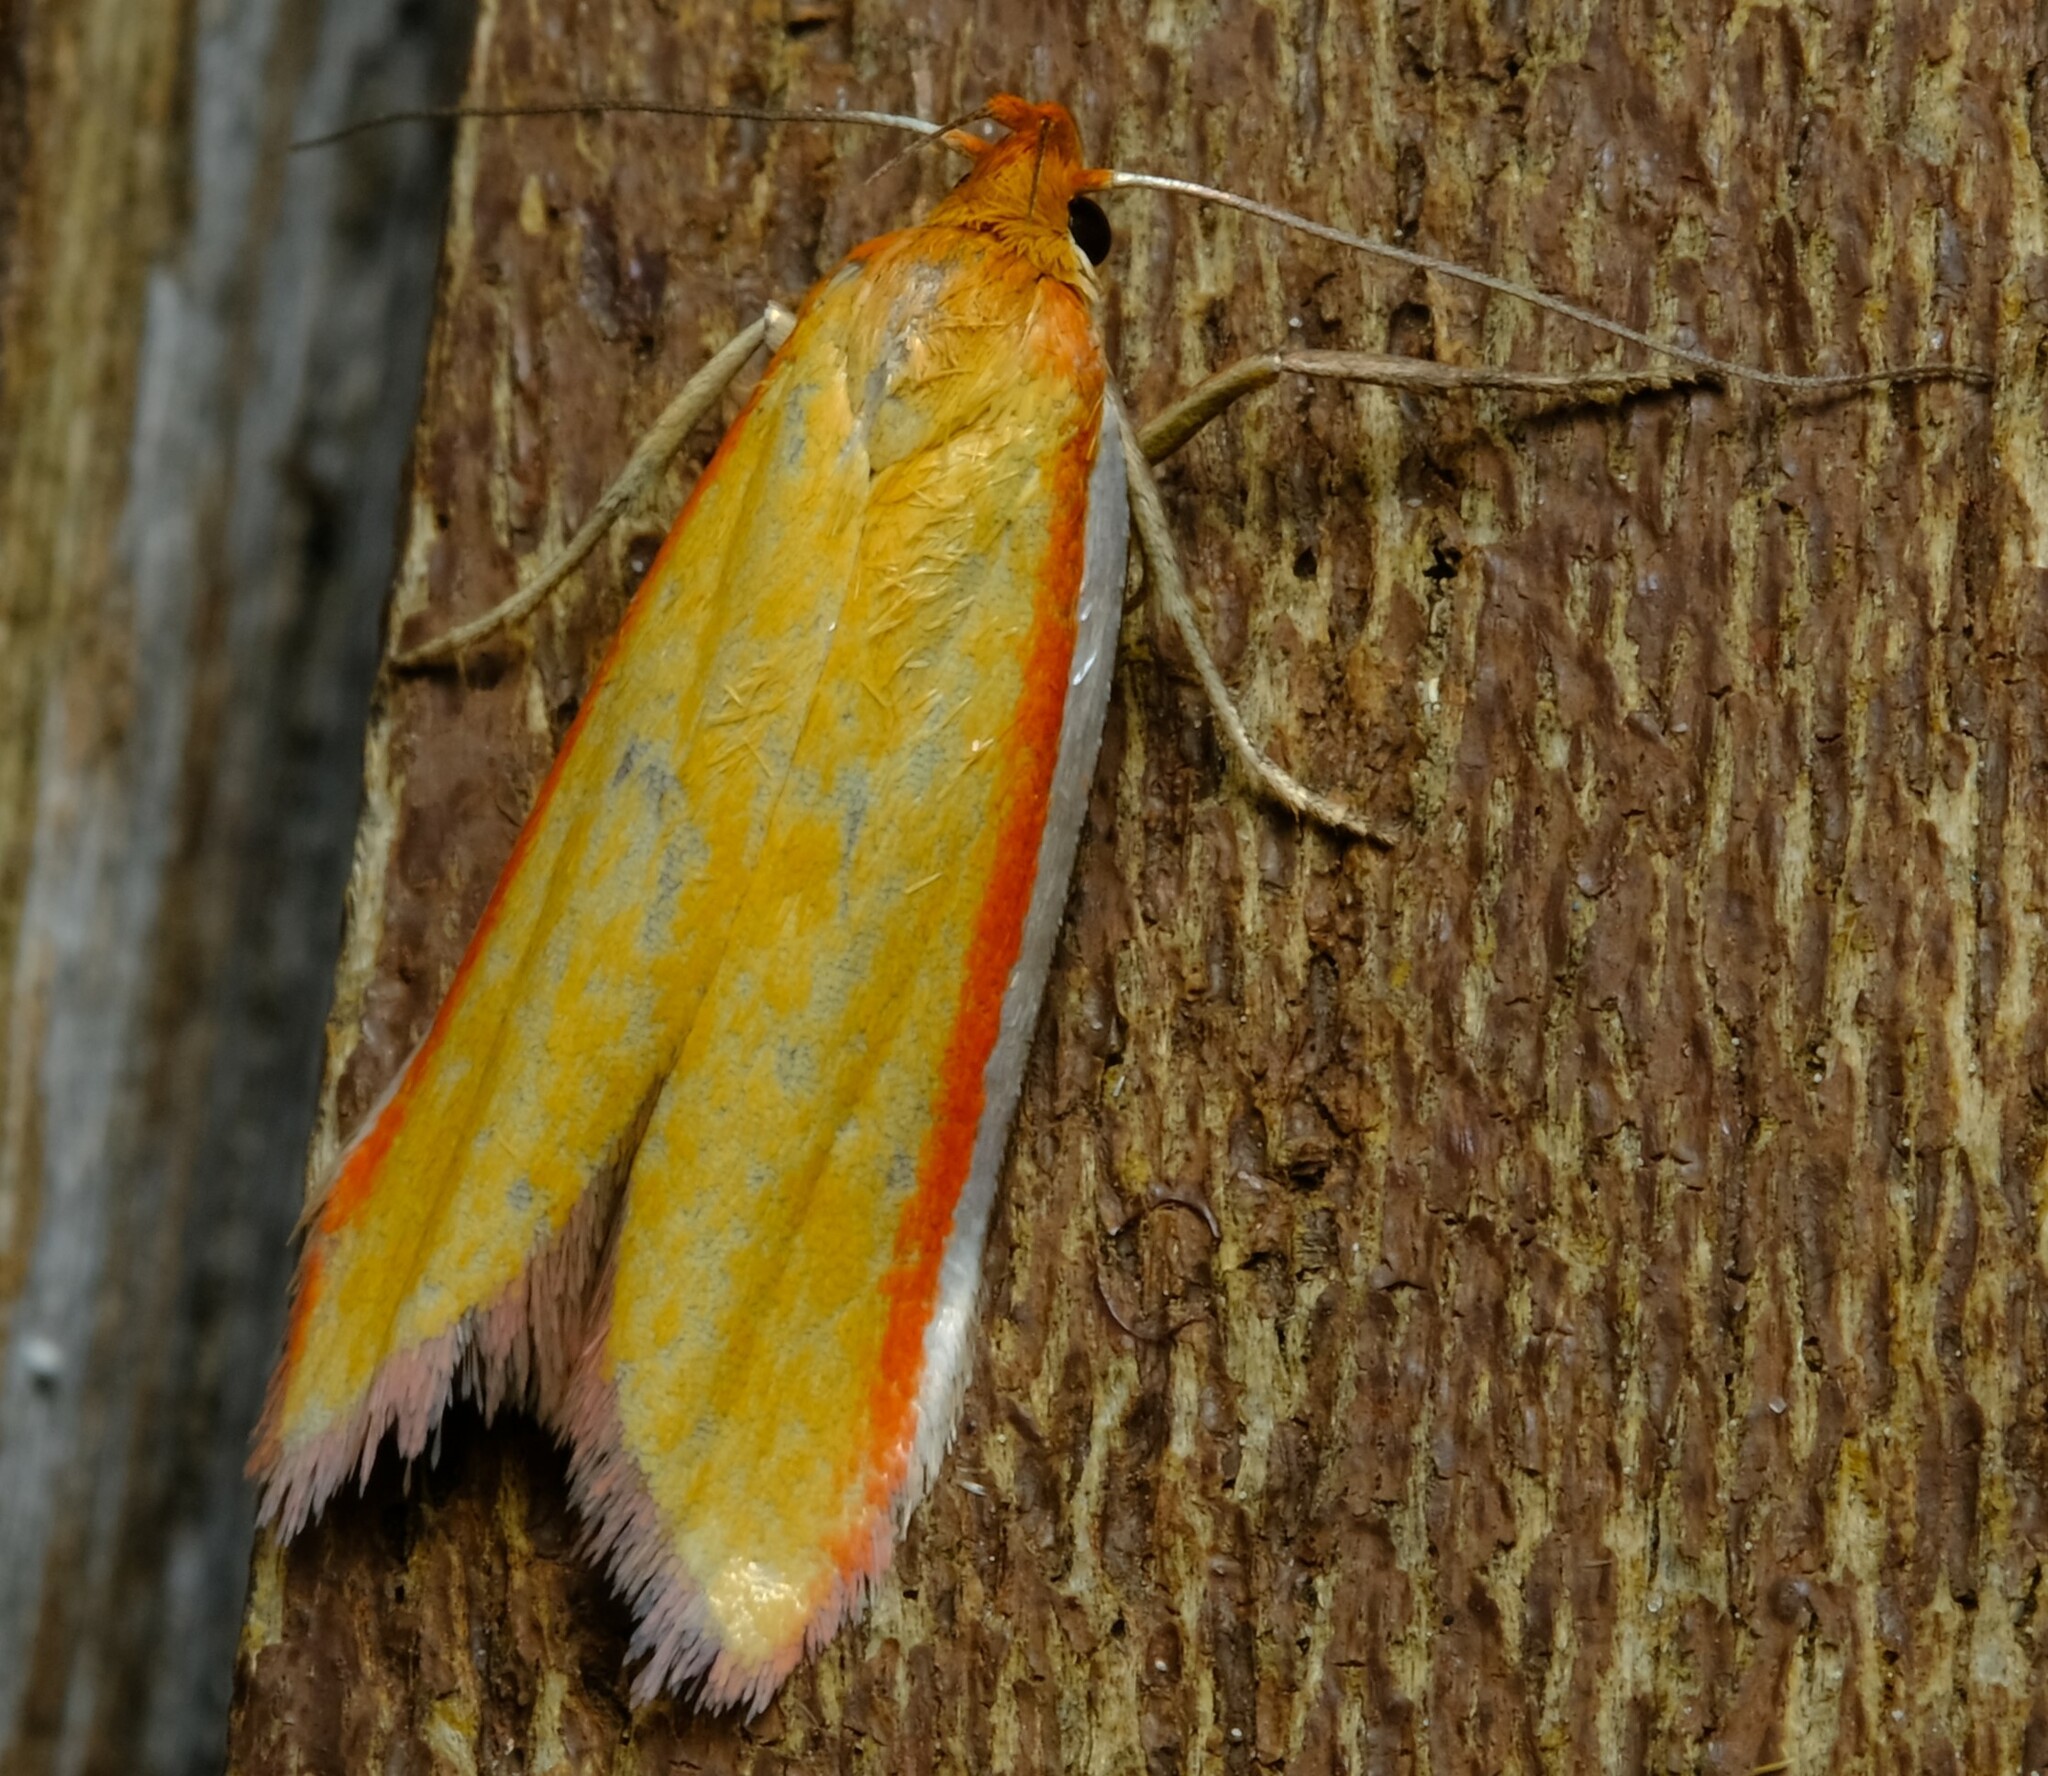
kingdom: Animalia
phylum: Arthropoda
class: Insecta
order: Lepidoptera
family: Oecophoridae
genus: Phytotrypa
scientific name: Phytotrypa pretiosella
